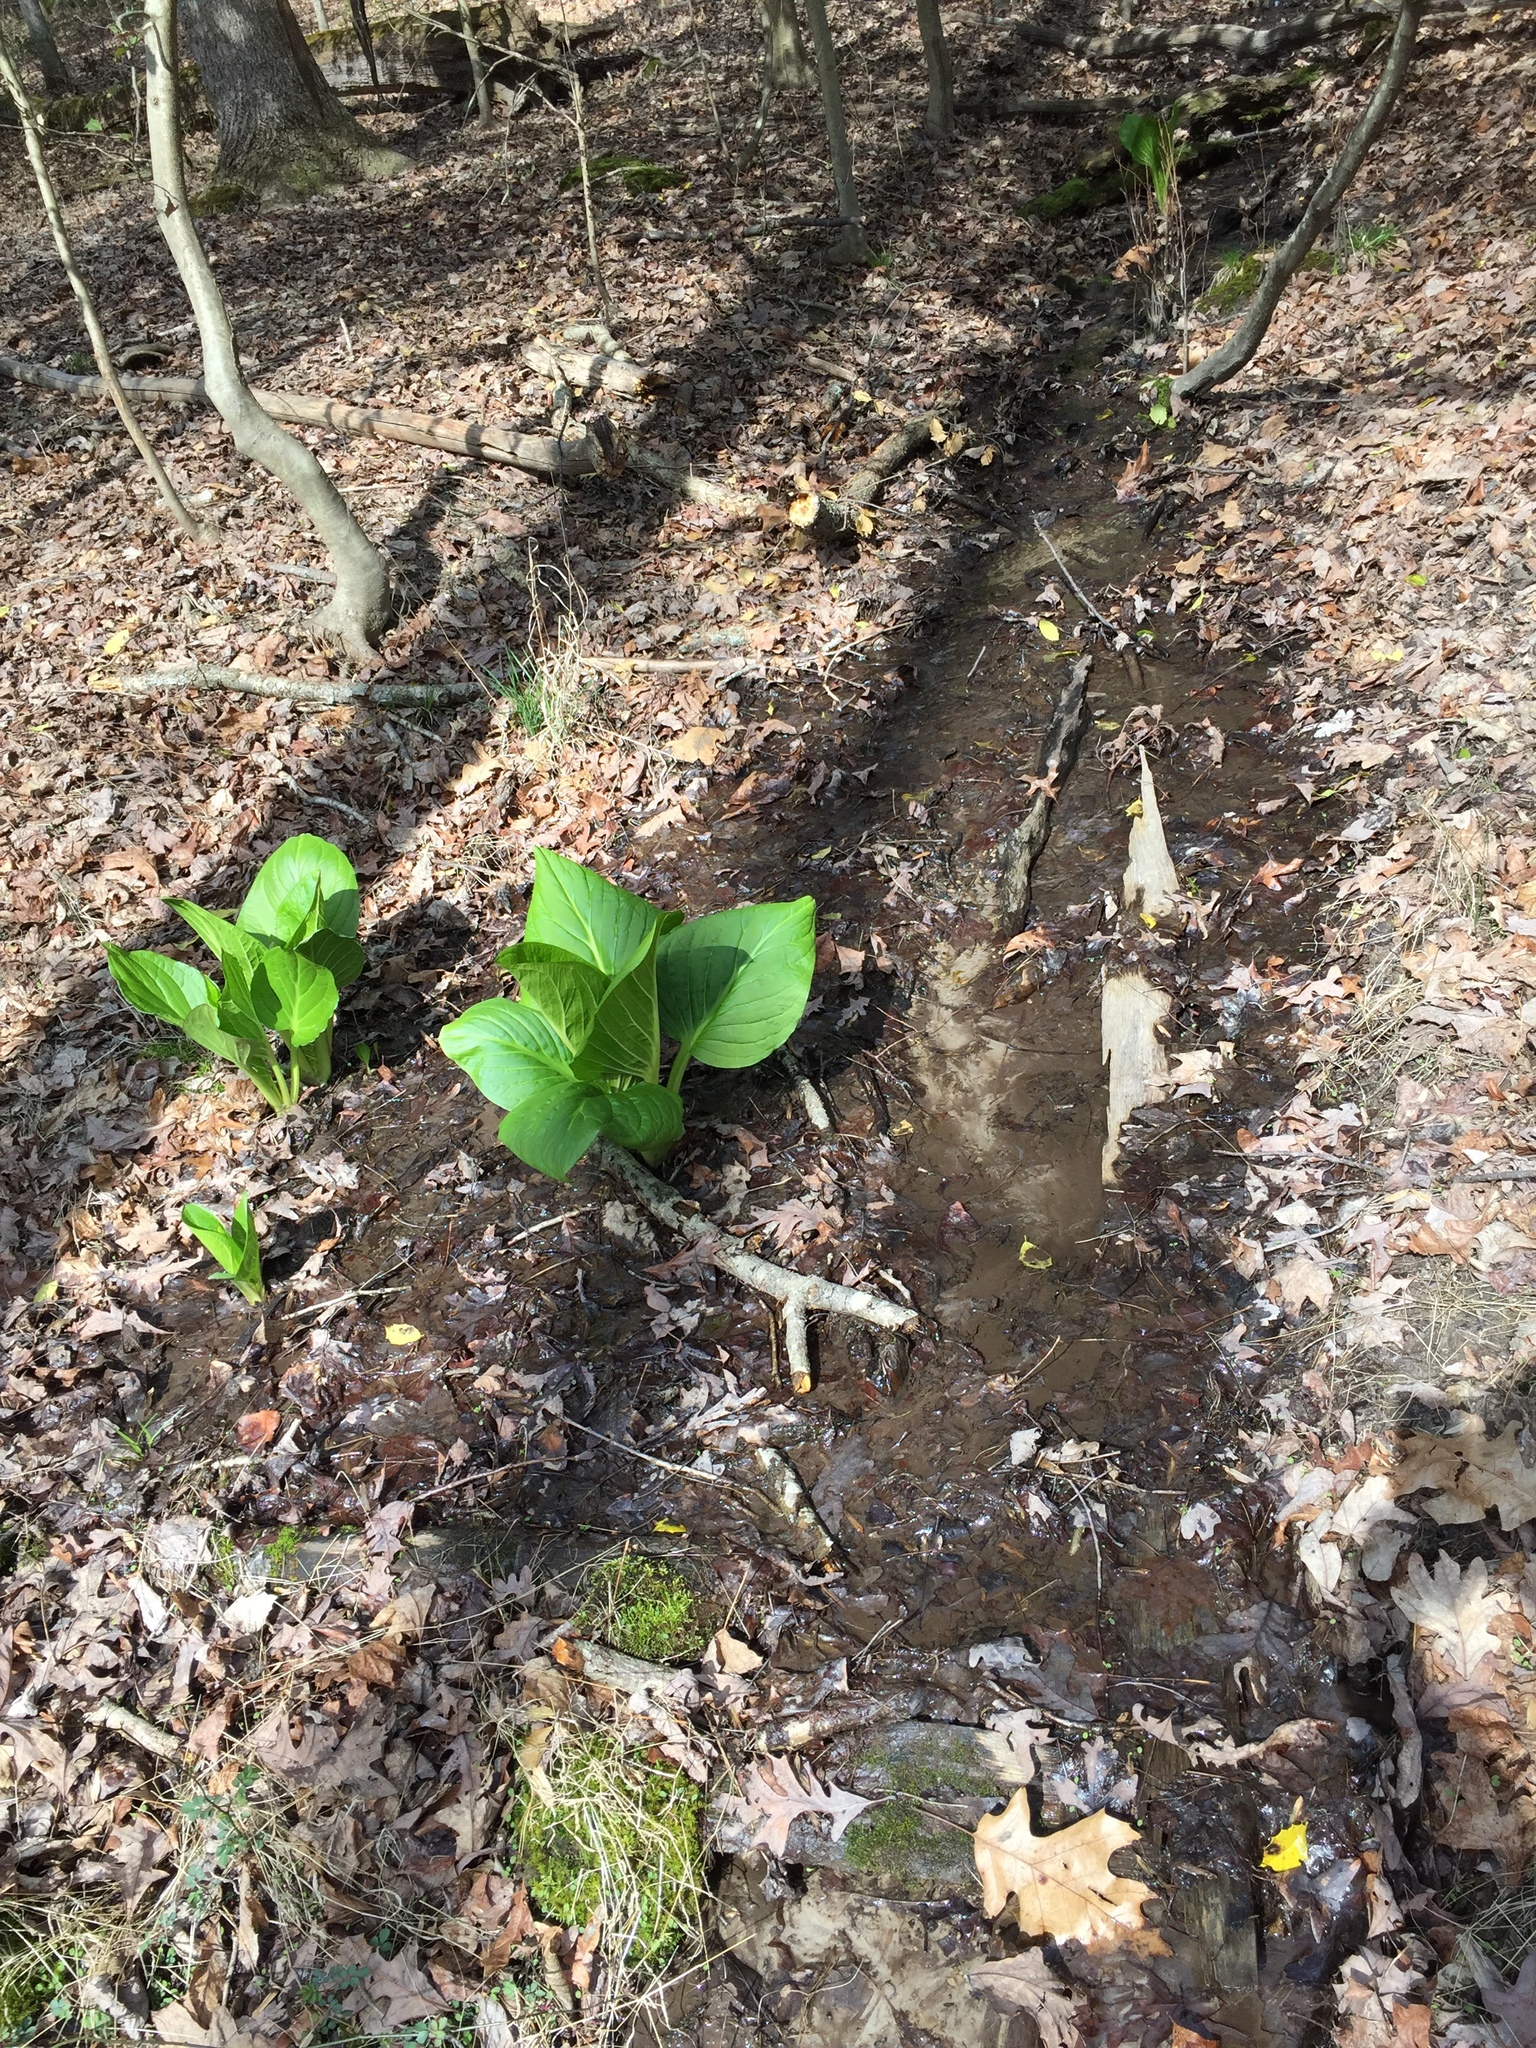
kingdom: Plantae
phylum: Tracheophyta
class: Liliopsida
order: Alismatales
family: Araceae
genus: Symplocarpus
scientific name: Symplocarpus foetidus
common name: Eastern skunk cabbage
